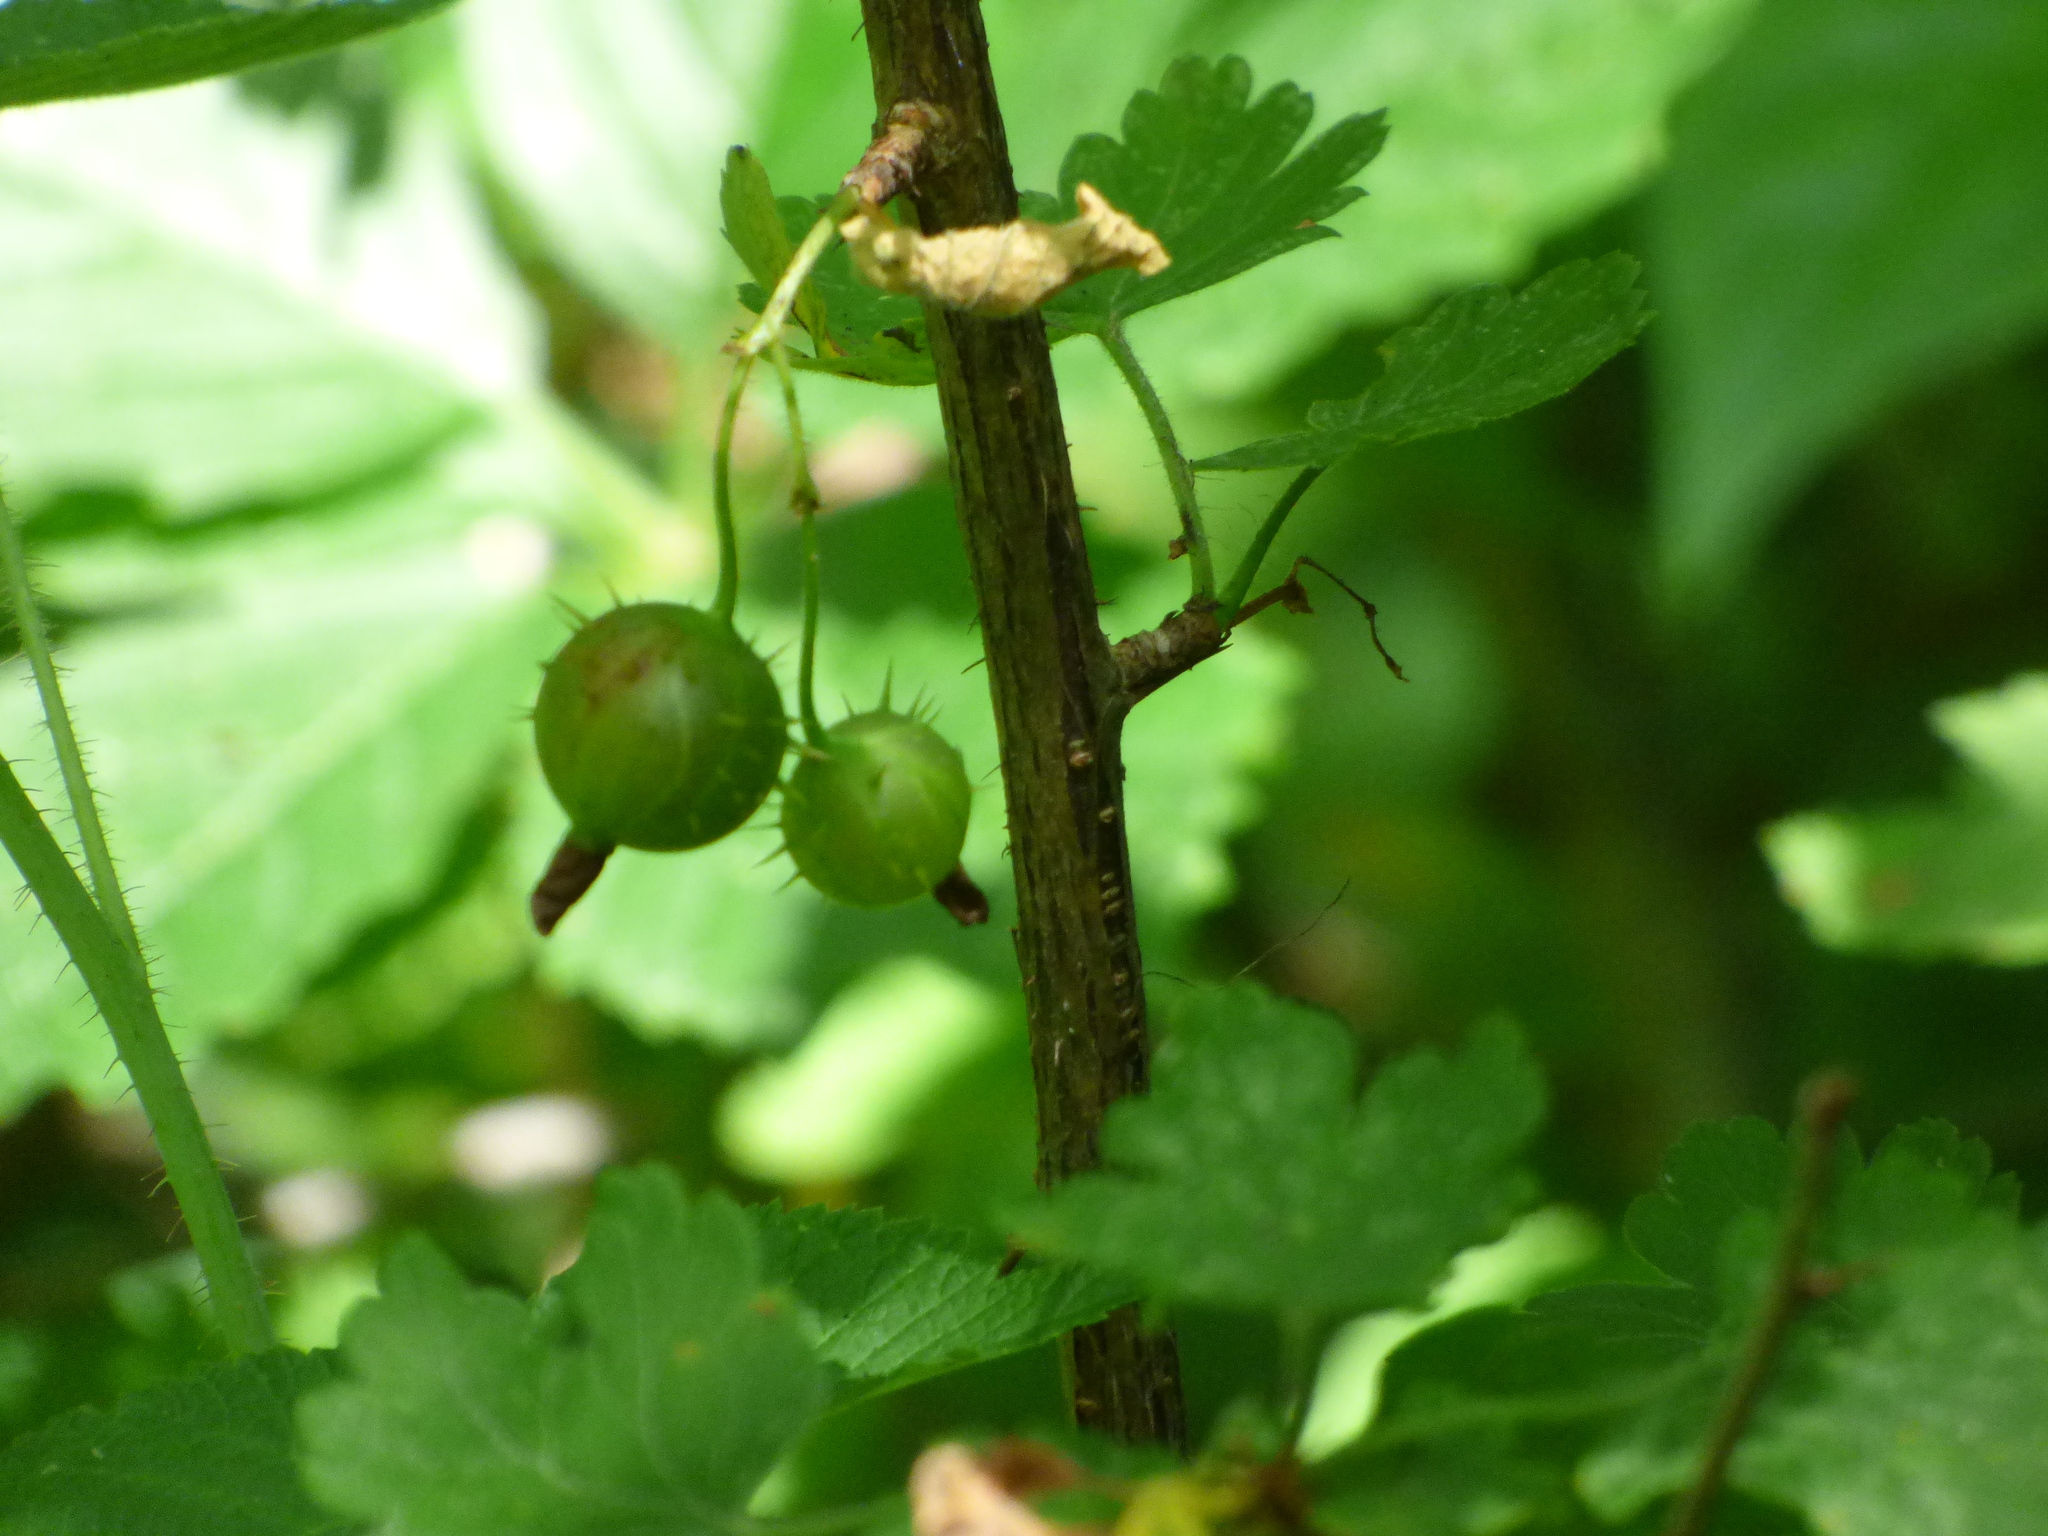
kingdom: Plantae
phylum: Tracheophyta
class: Magnoliopsida
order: Saxifragales
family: Grossulariaceae
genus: Ribes
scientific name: Ribes cynosbati
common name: American gooseberry
